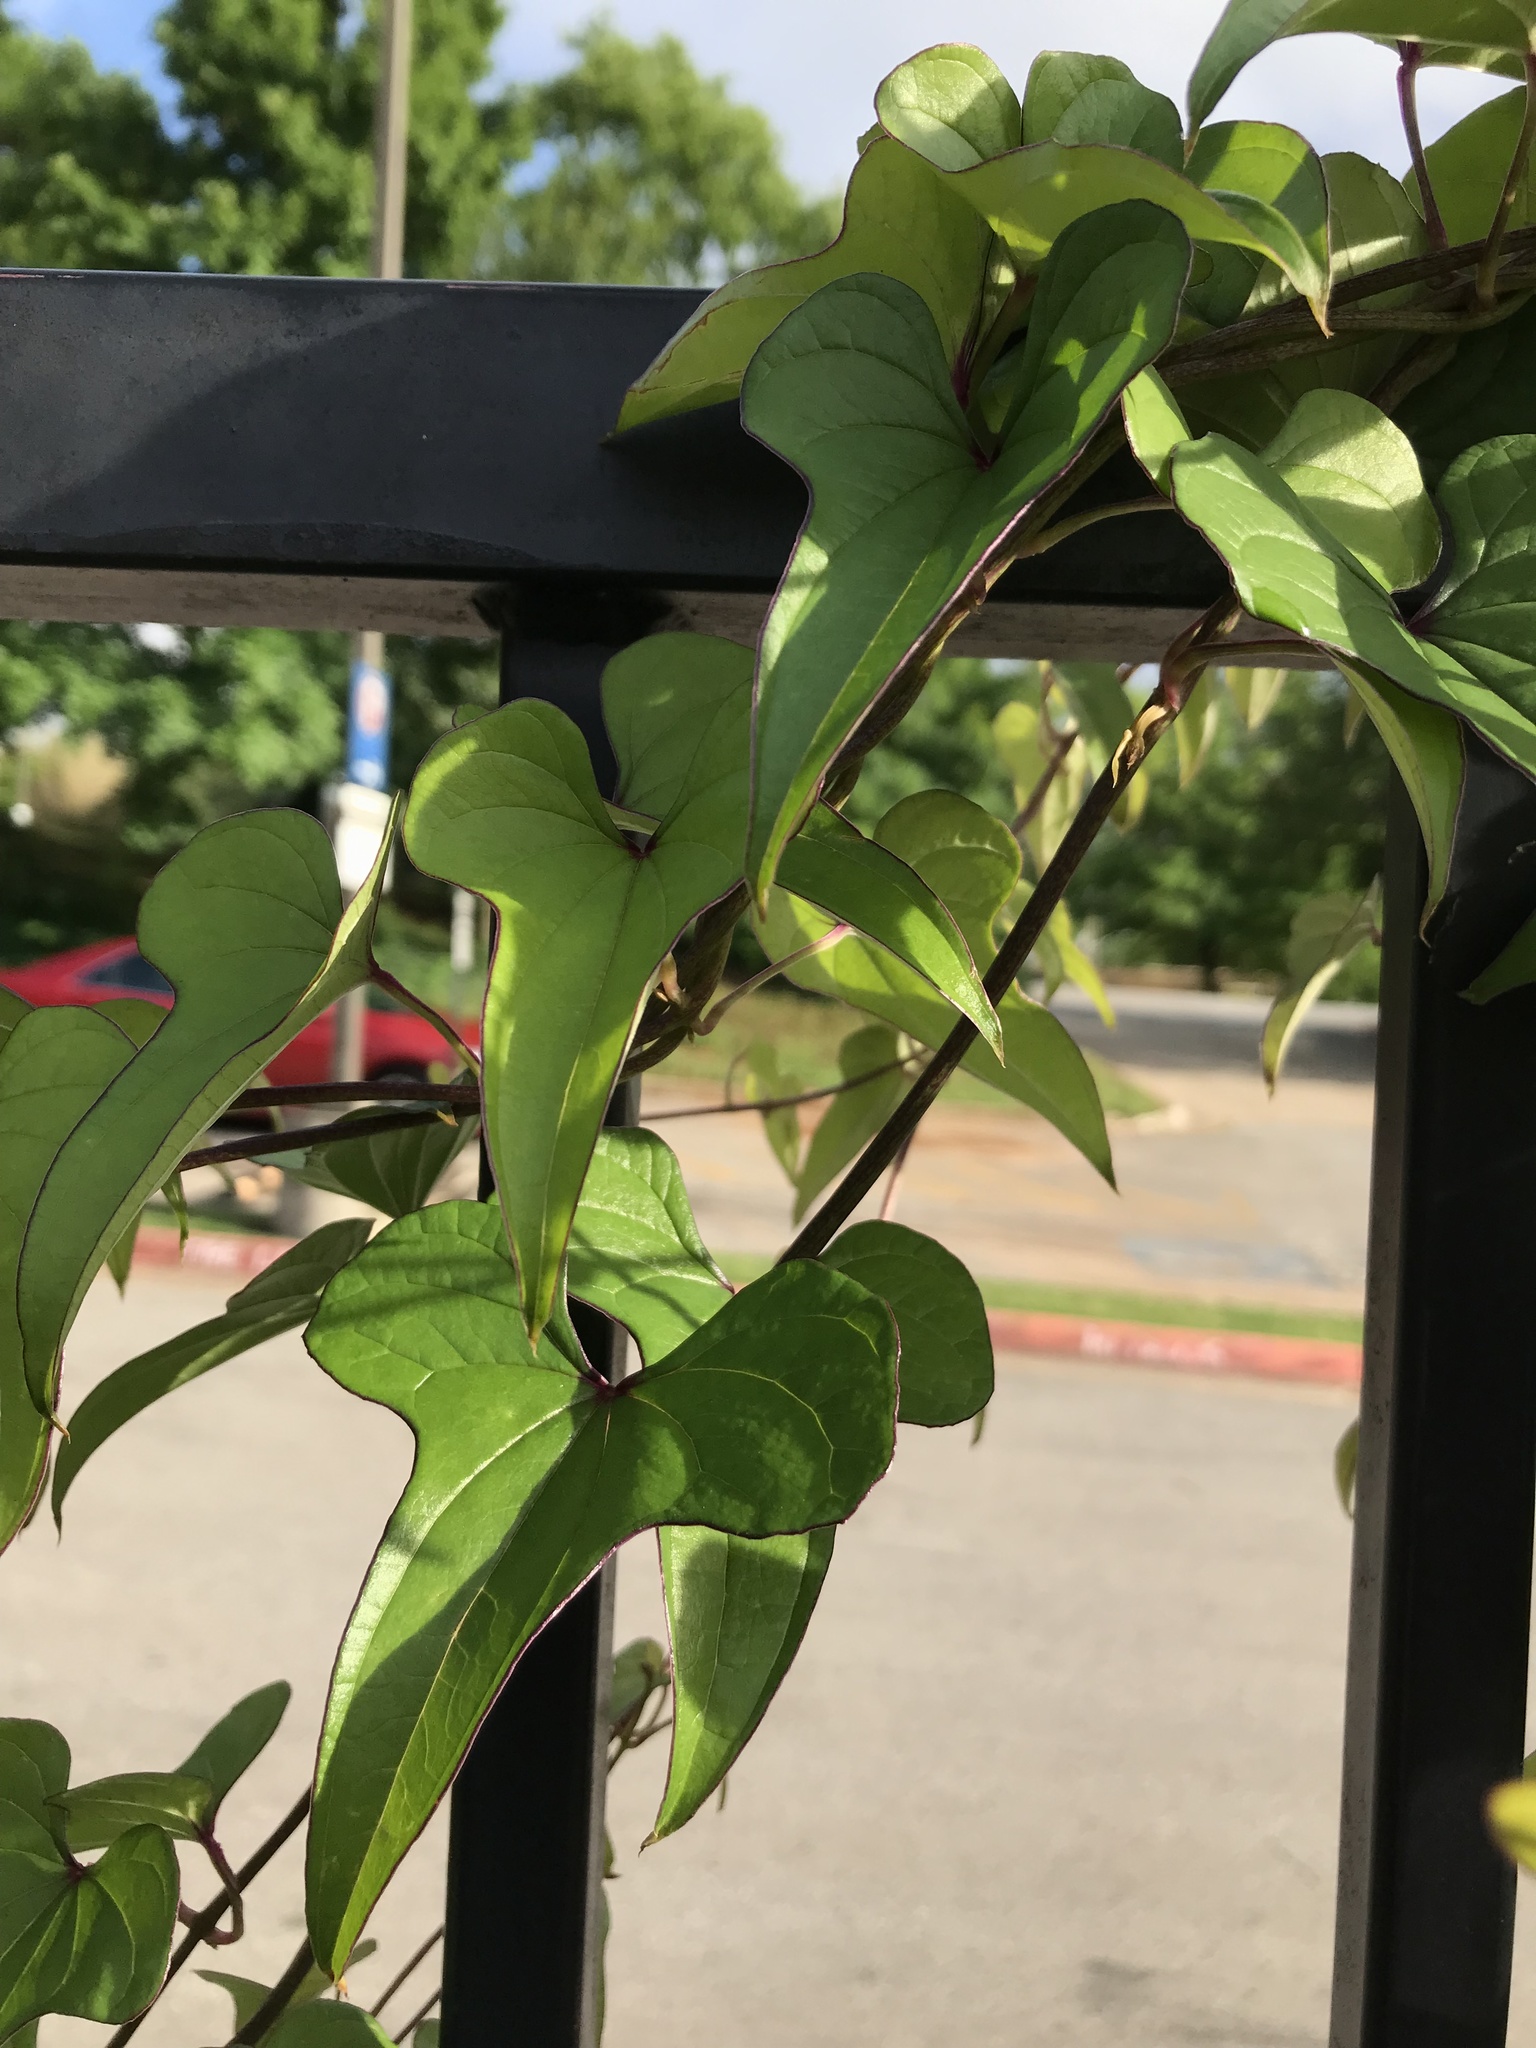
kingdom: Plantae
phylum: Tracheophyta
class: Liliopsida
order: Dioscoreales
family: Dioscoreaceae
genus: Dioscorea
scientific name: Dioscorea polystachya
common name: Chinese yam
